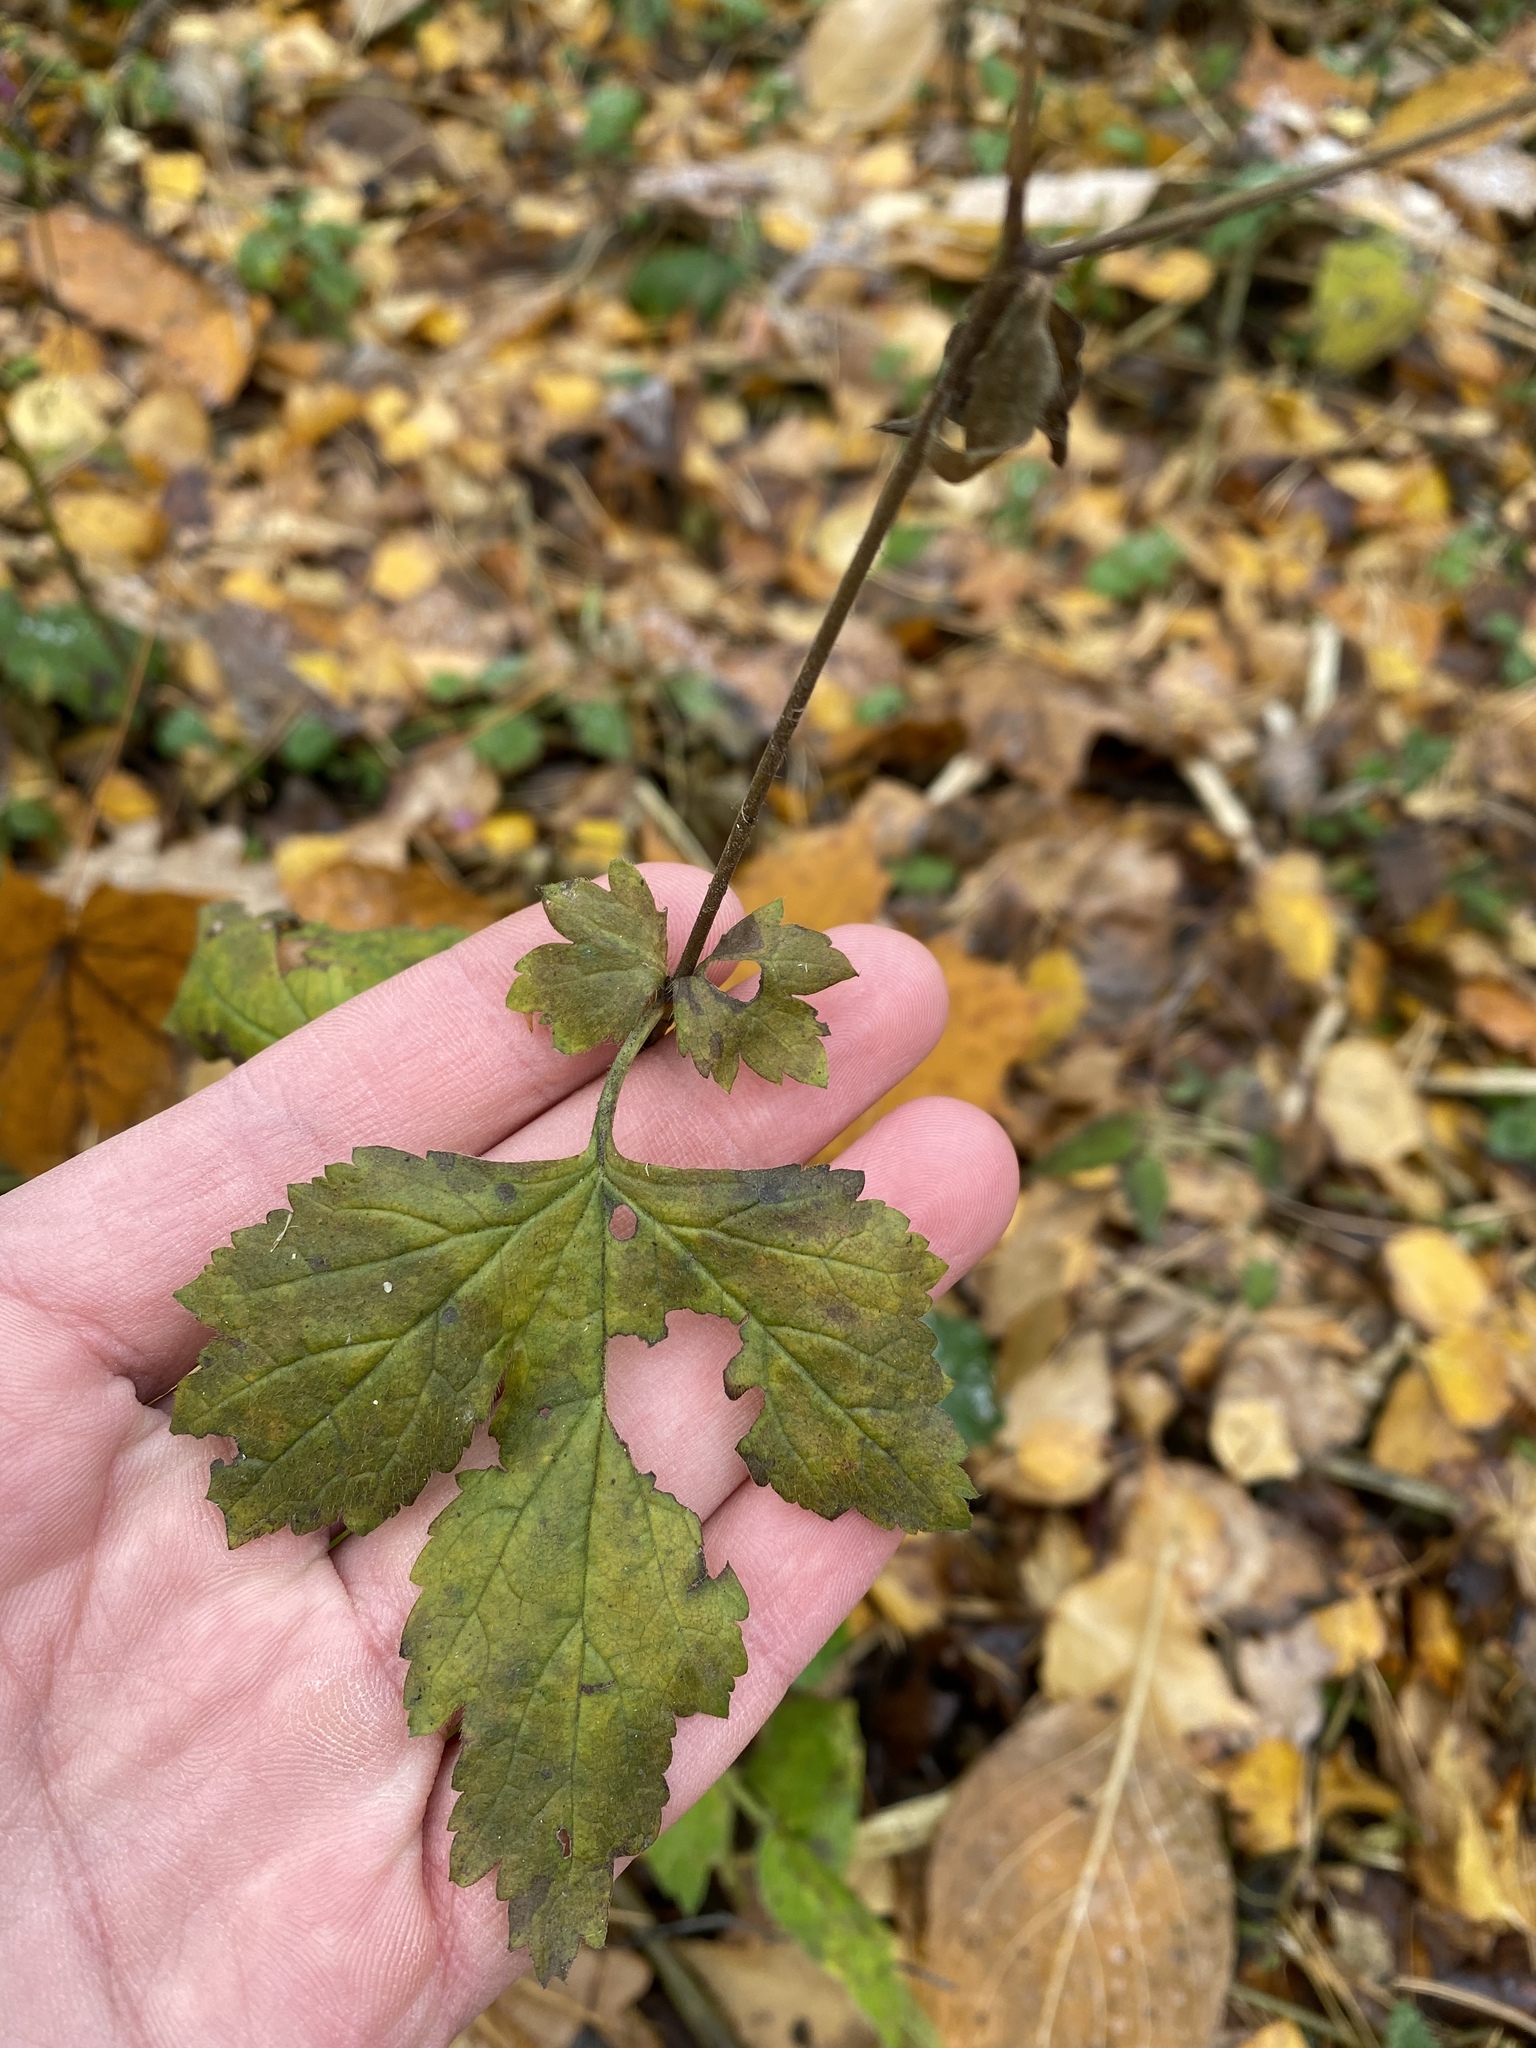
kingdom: Plantae
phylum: Tracheophyta
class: Magnoliopsida
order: Rosales
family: Rosaceae
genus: Geum
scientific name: Geum urbanum
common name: Wood avens
